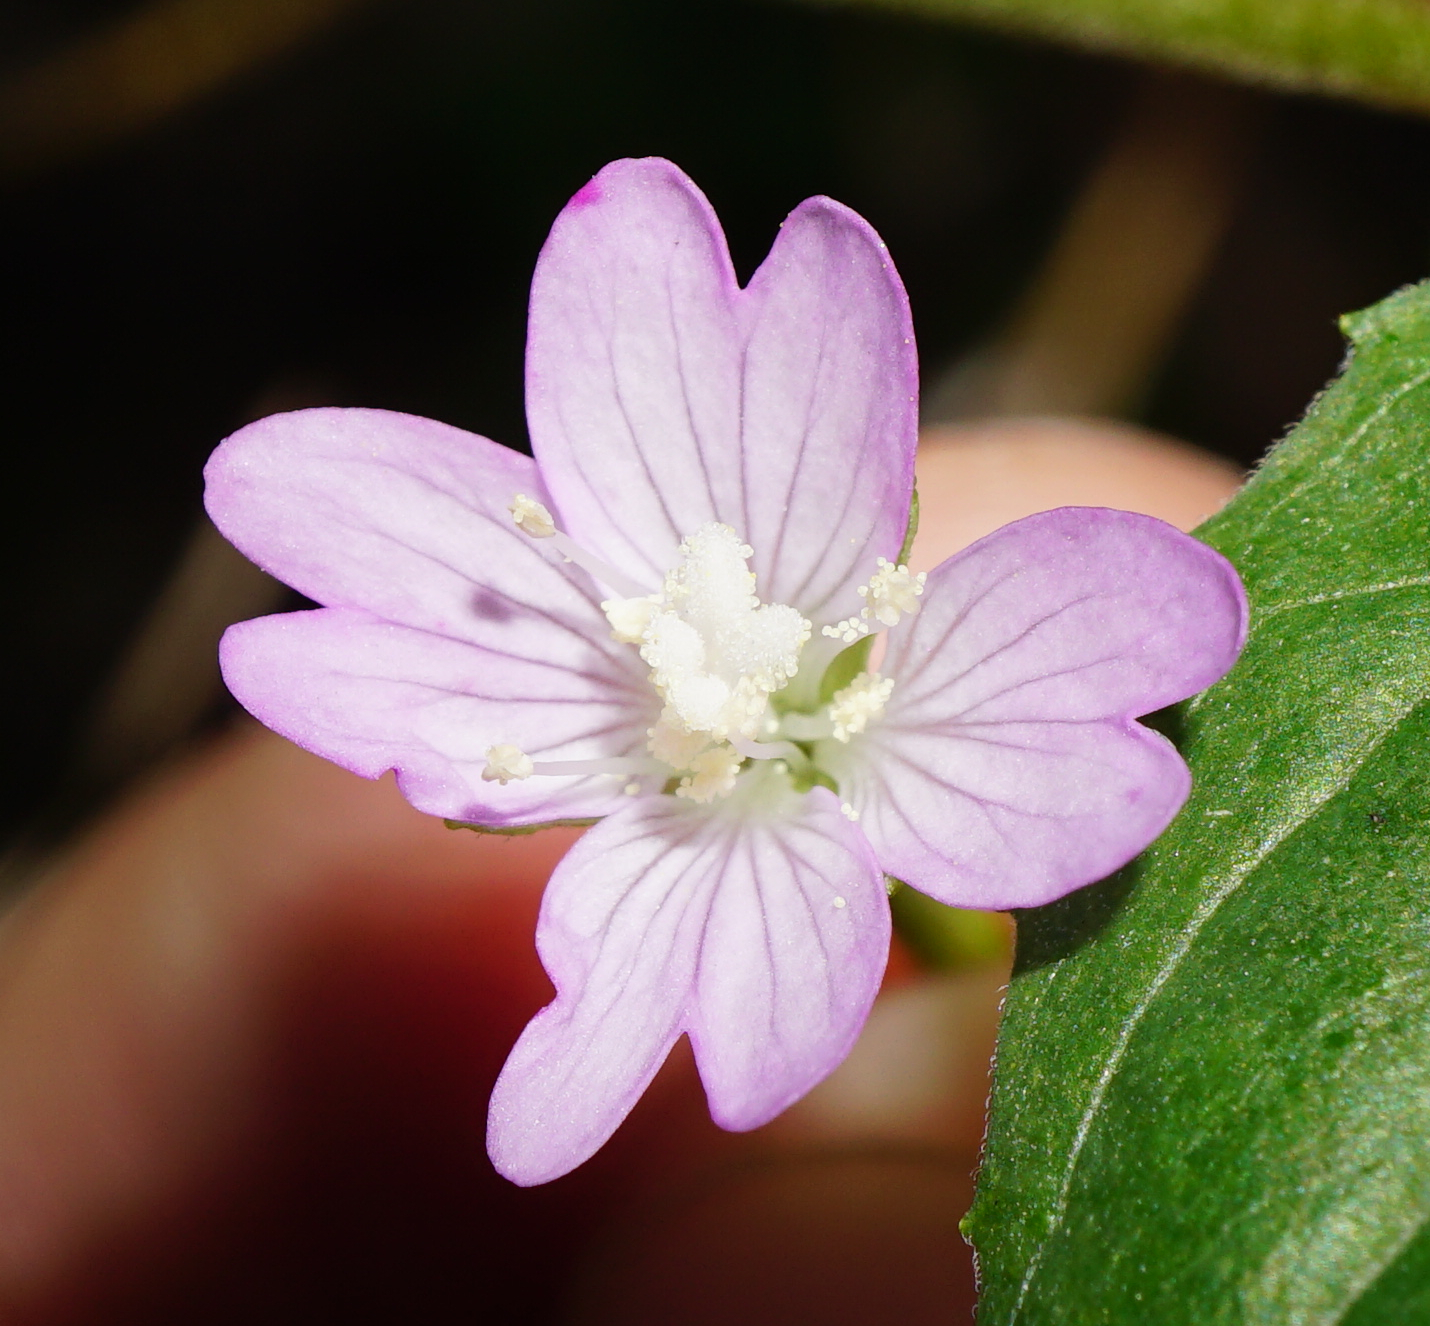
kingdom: Plantae
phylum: Tracheophyta
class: Magnoliopsida
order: Myrtales
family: Onagraceae
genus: Epilobium
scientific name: Epilobium montanum
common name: Broad-leaved willowherb
